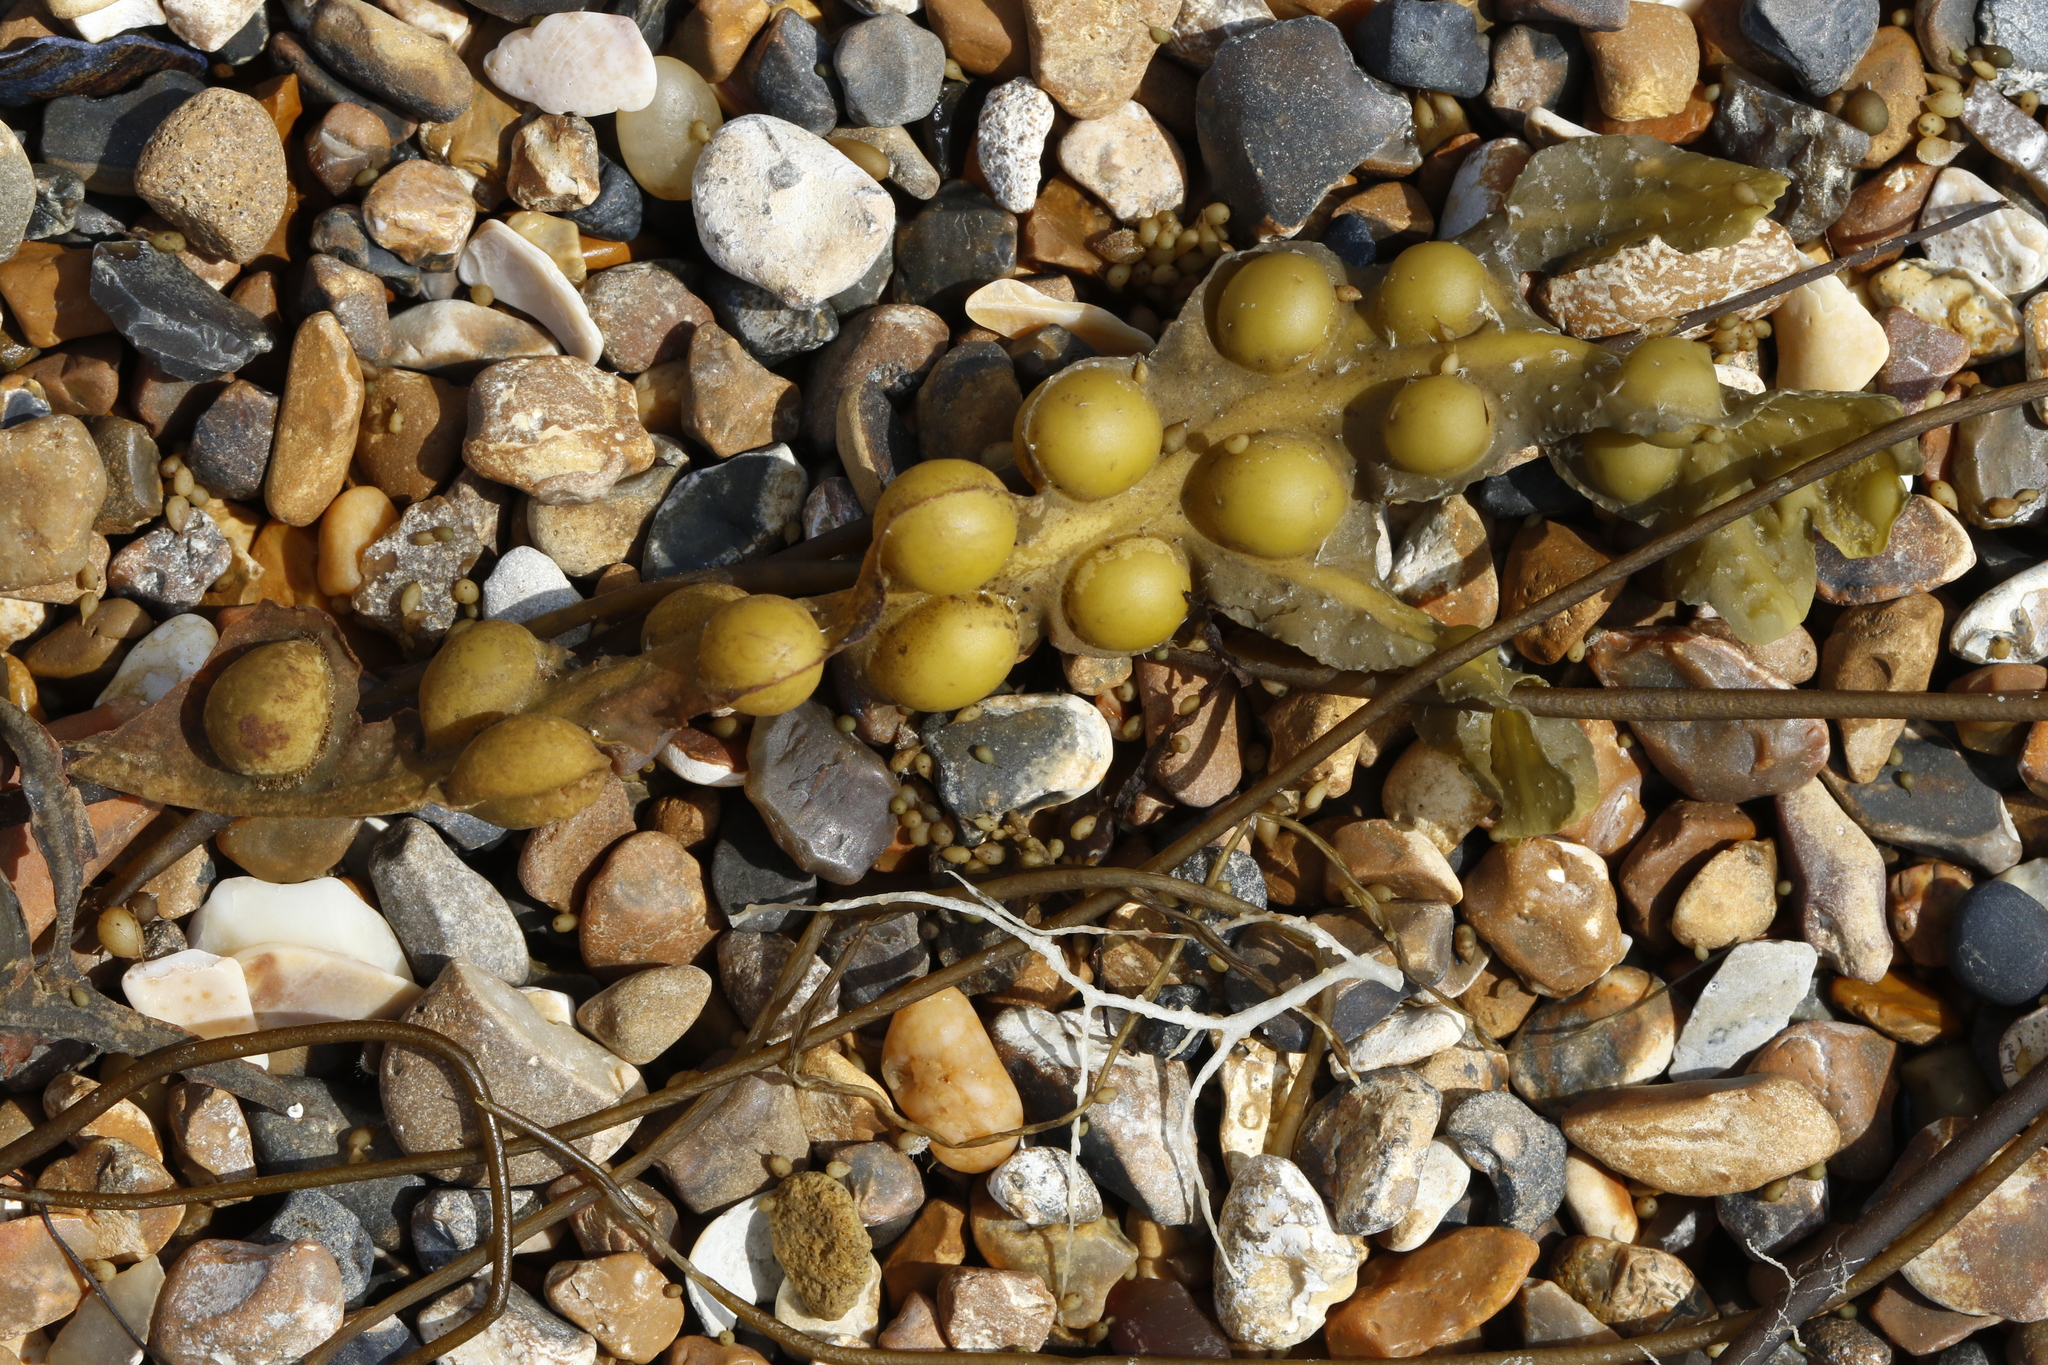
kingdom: Chromista
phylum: Ochrophyta
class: Phaeophyceae
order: Fucales
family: Fucaceae
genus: Fucus
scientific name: Fucus vesiculosus
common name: Bladder wrack
